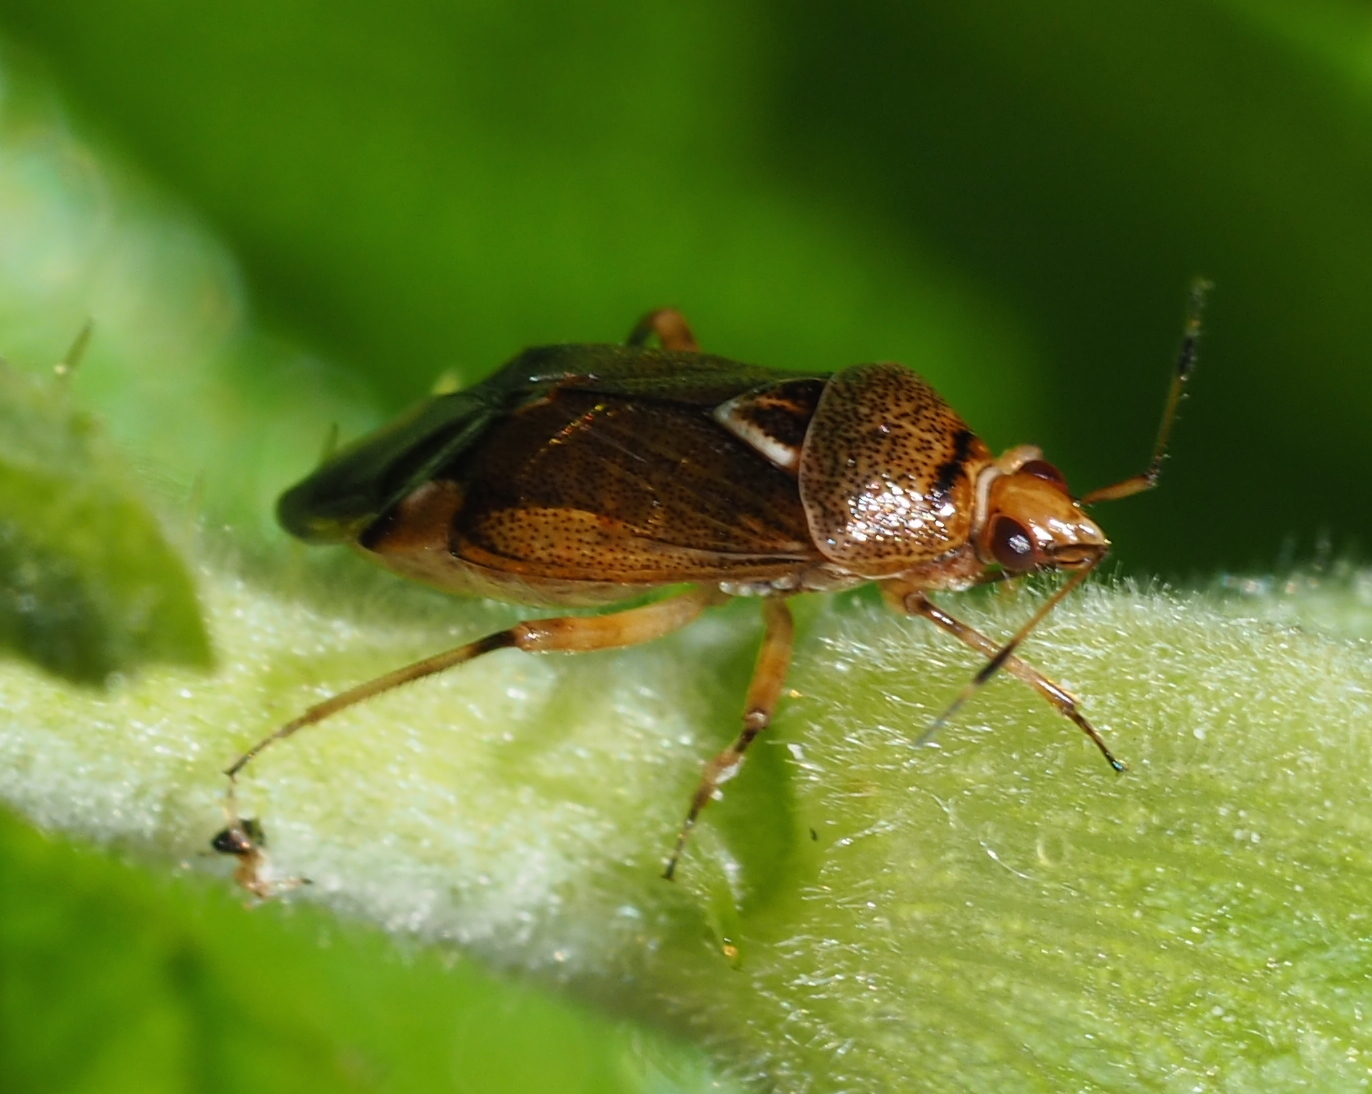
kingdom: Animalia
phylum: Arthropoda
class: Insecta
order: Hemiptera
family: Miridae
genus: Deraeocoris
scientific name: Deraeocoris flavilinea
